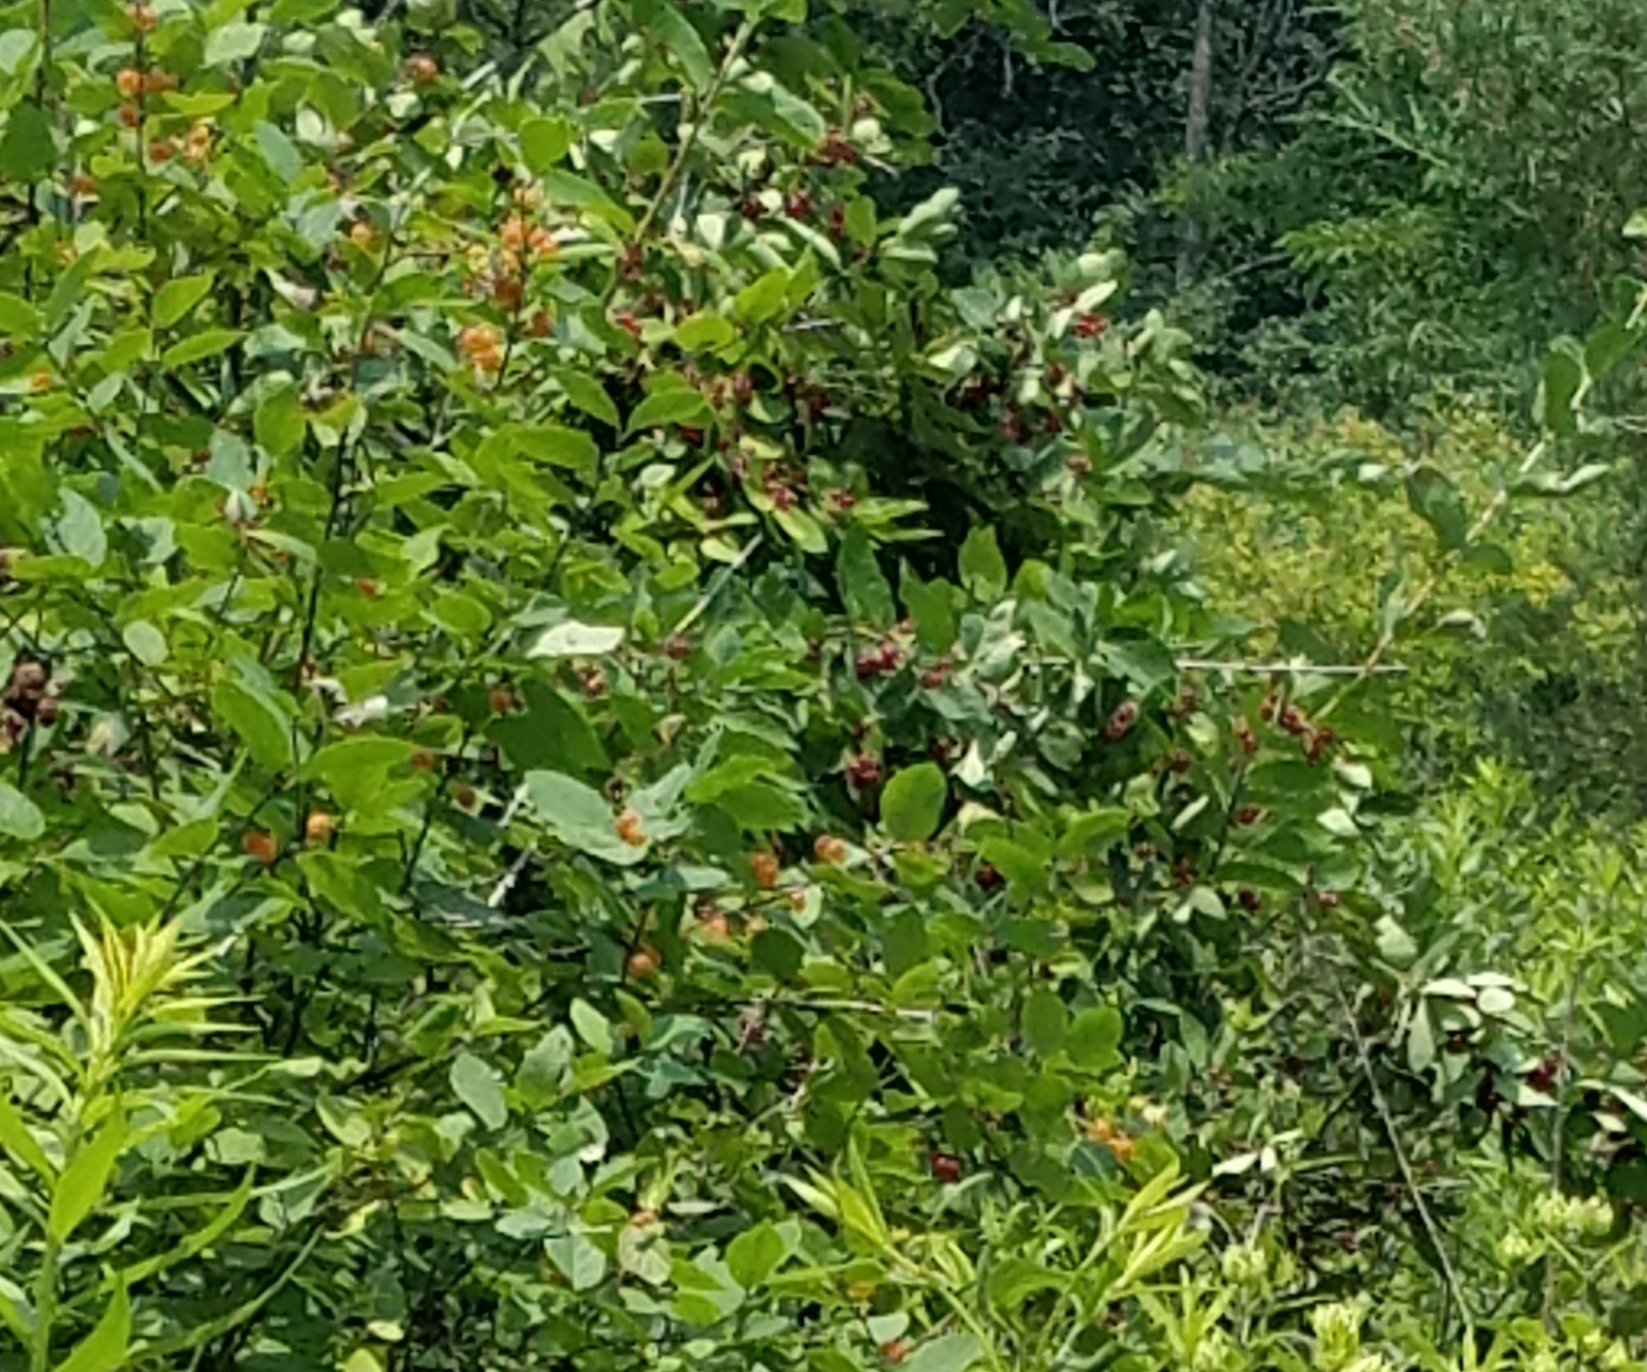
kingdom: Plantae
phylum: Tracheophyta
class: Magnoliopsida
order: Dipsacales
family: Caprifoliaceae
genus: Lonicera
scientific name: Lonicera
